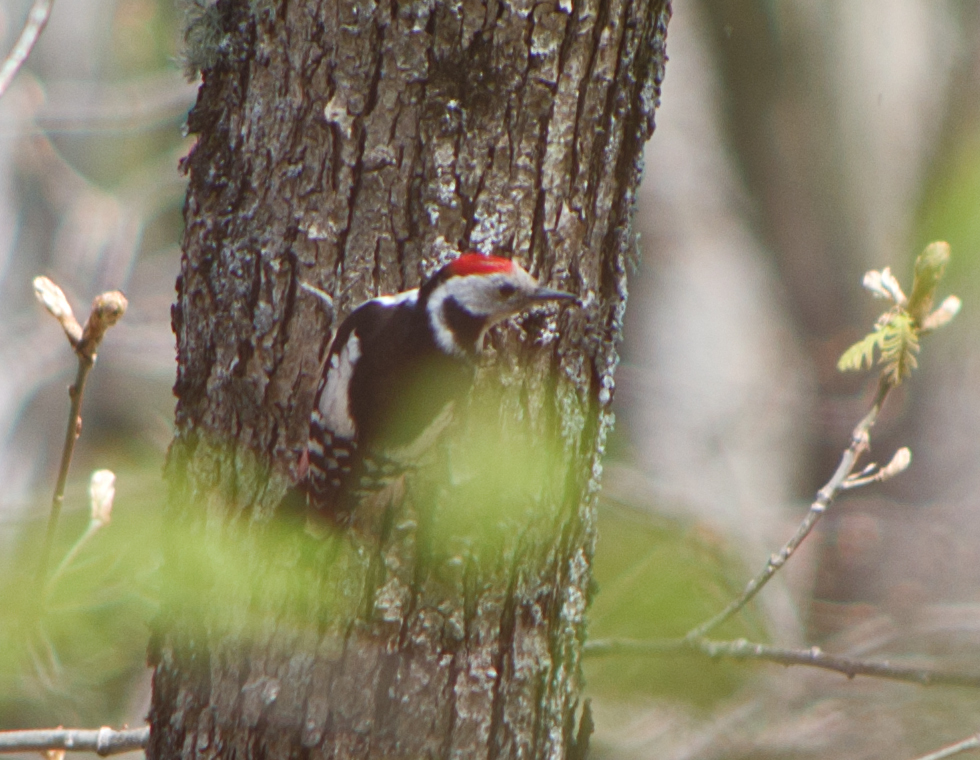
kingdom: Animalia
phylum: Chordata
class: Aves
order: Piciformes
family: Picidae
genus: Dryobates
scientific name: Dryobates minor
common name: Lesser spotted woodpecker
